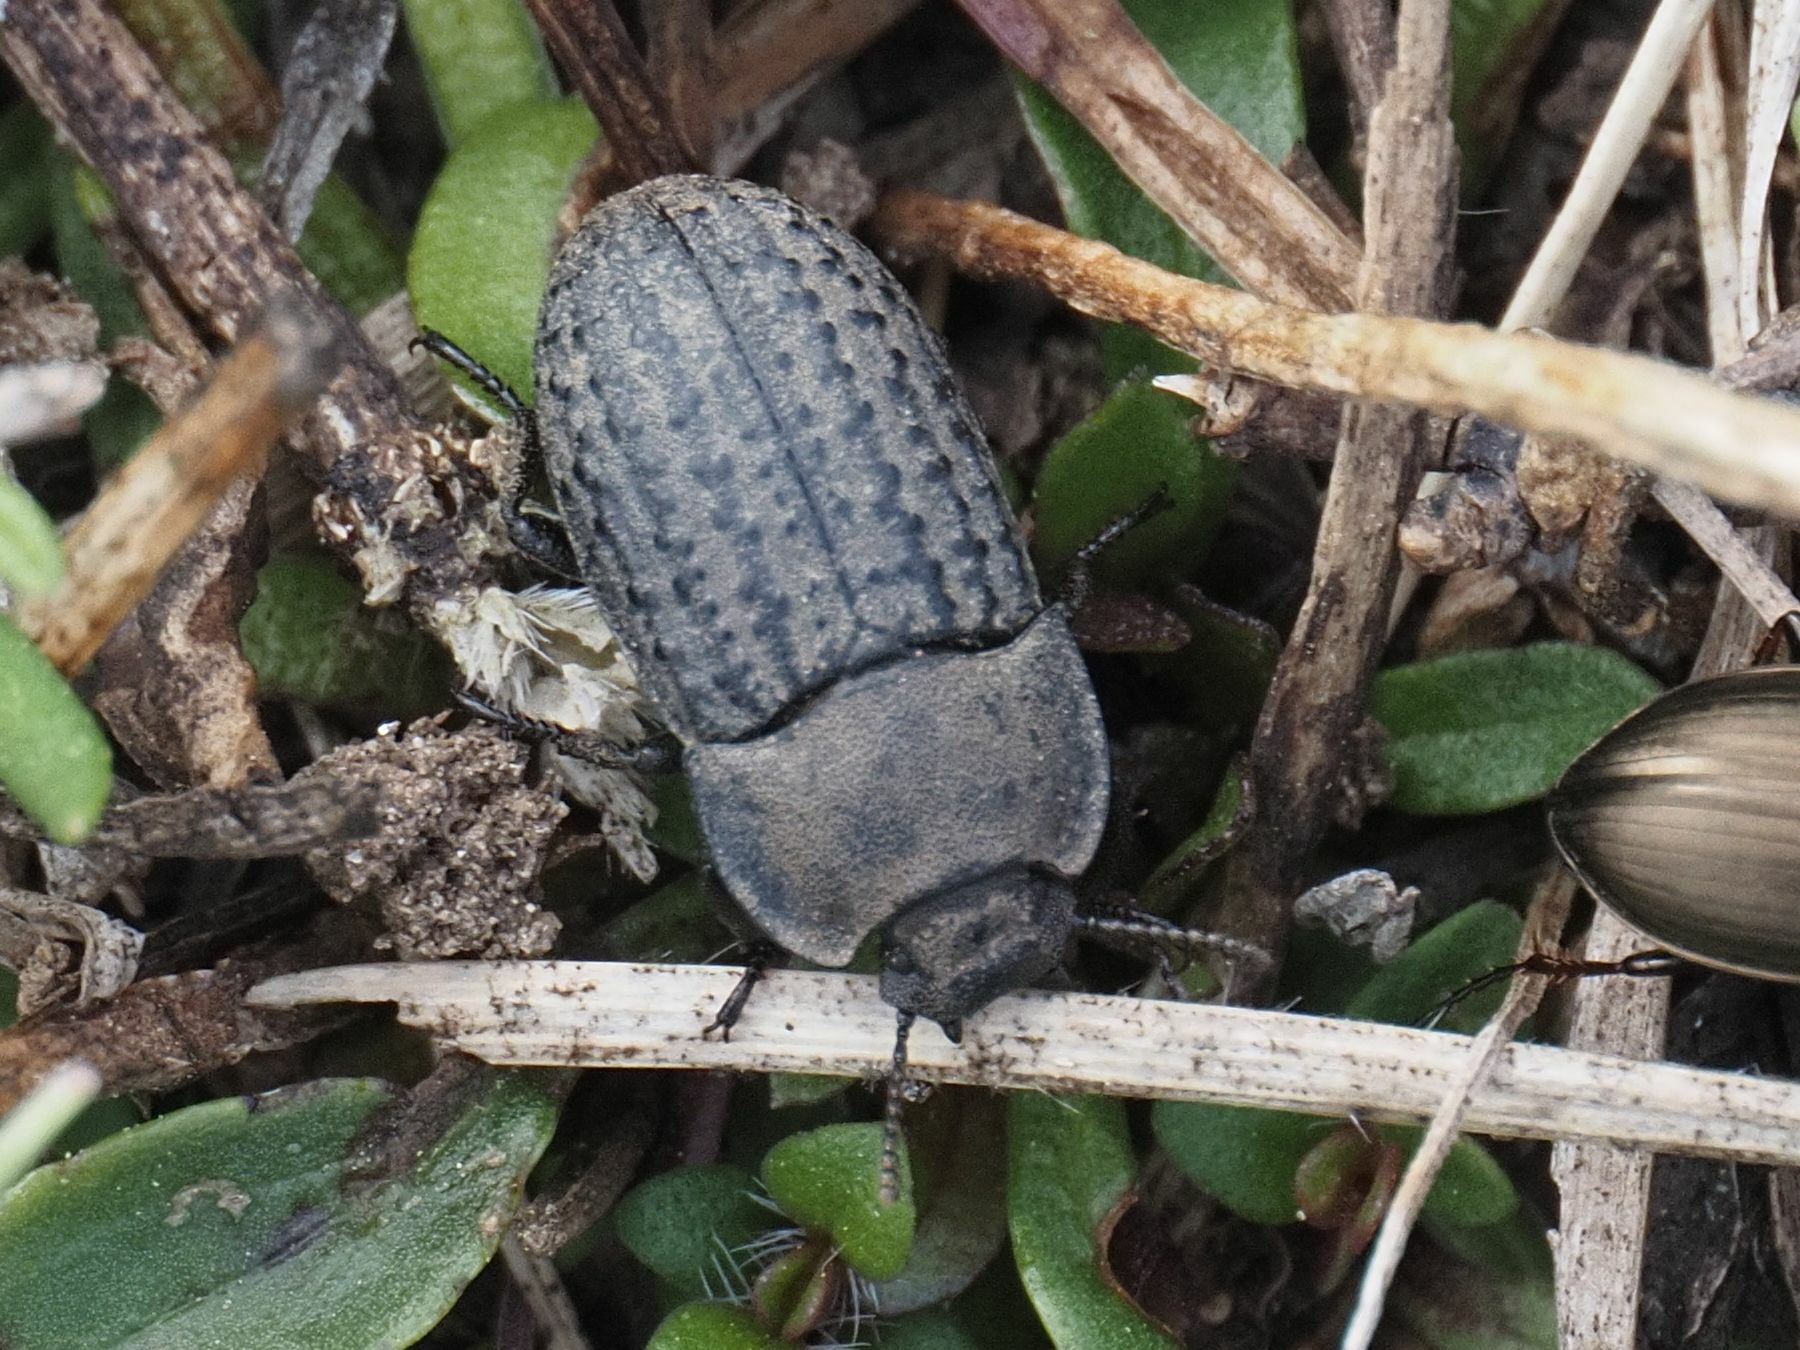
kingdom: Animalia
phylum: Arthropoda
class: Insecta
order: Coleoptera
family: Tenebrionidae
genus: Opatrum
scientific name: Opatrum sabulosum
